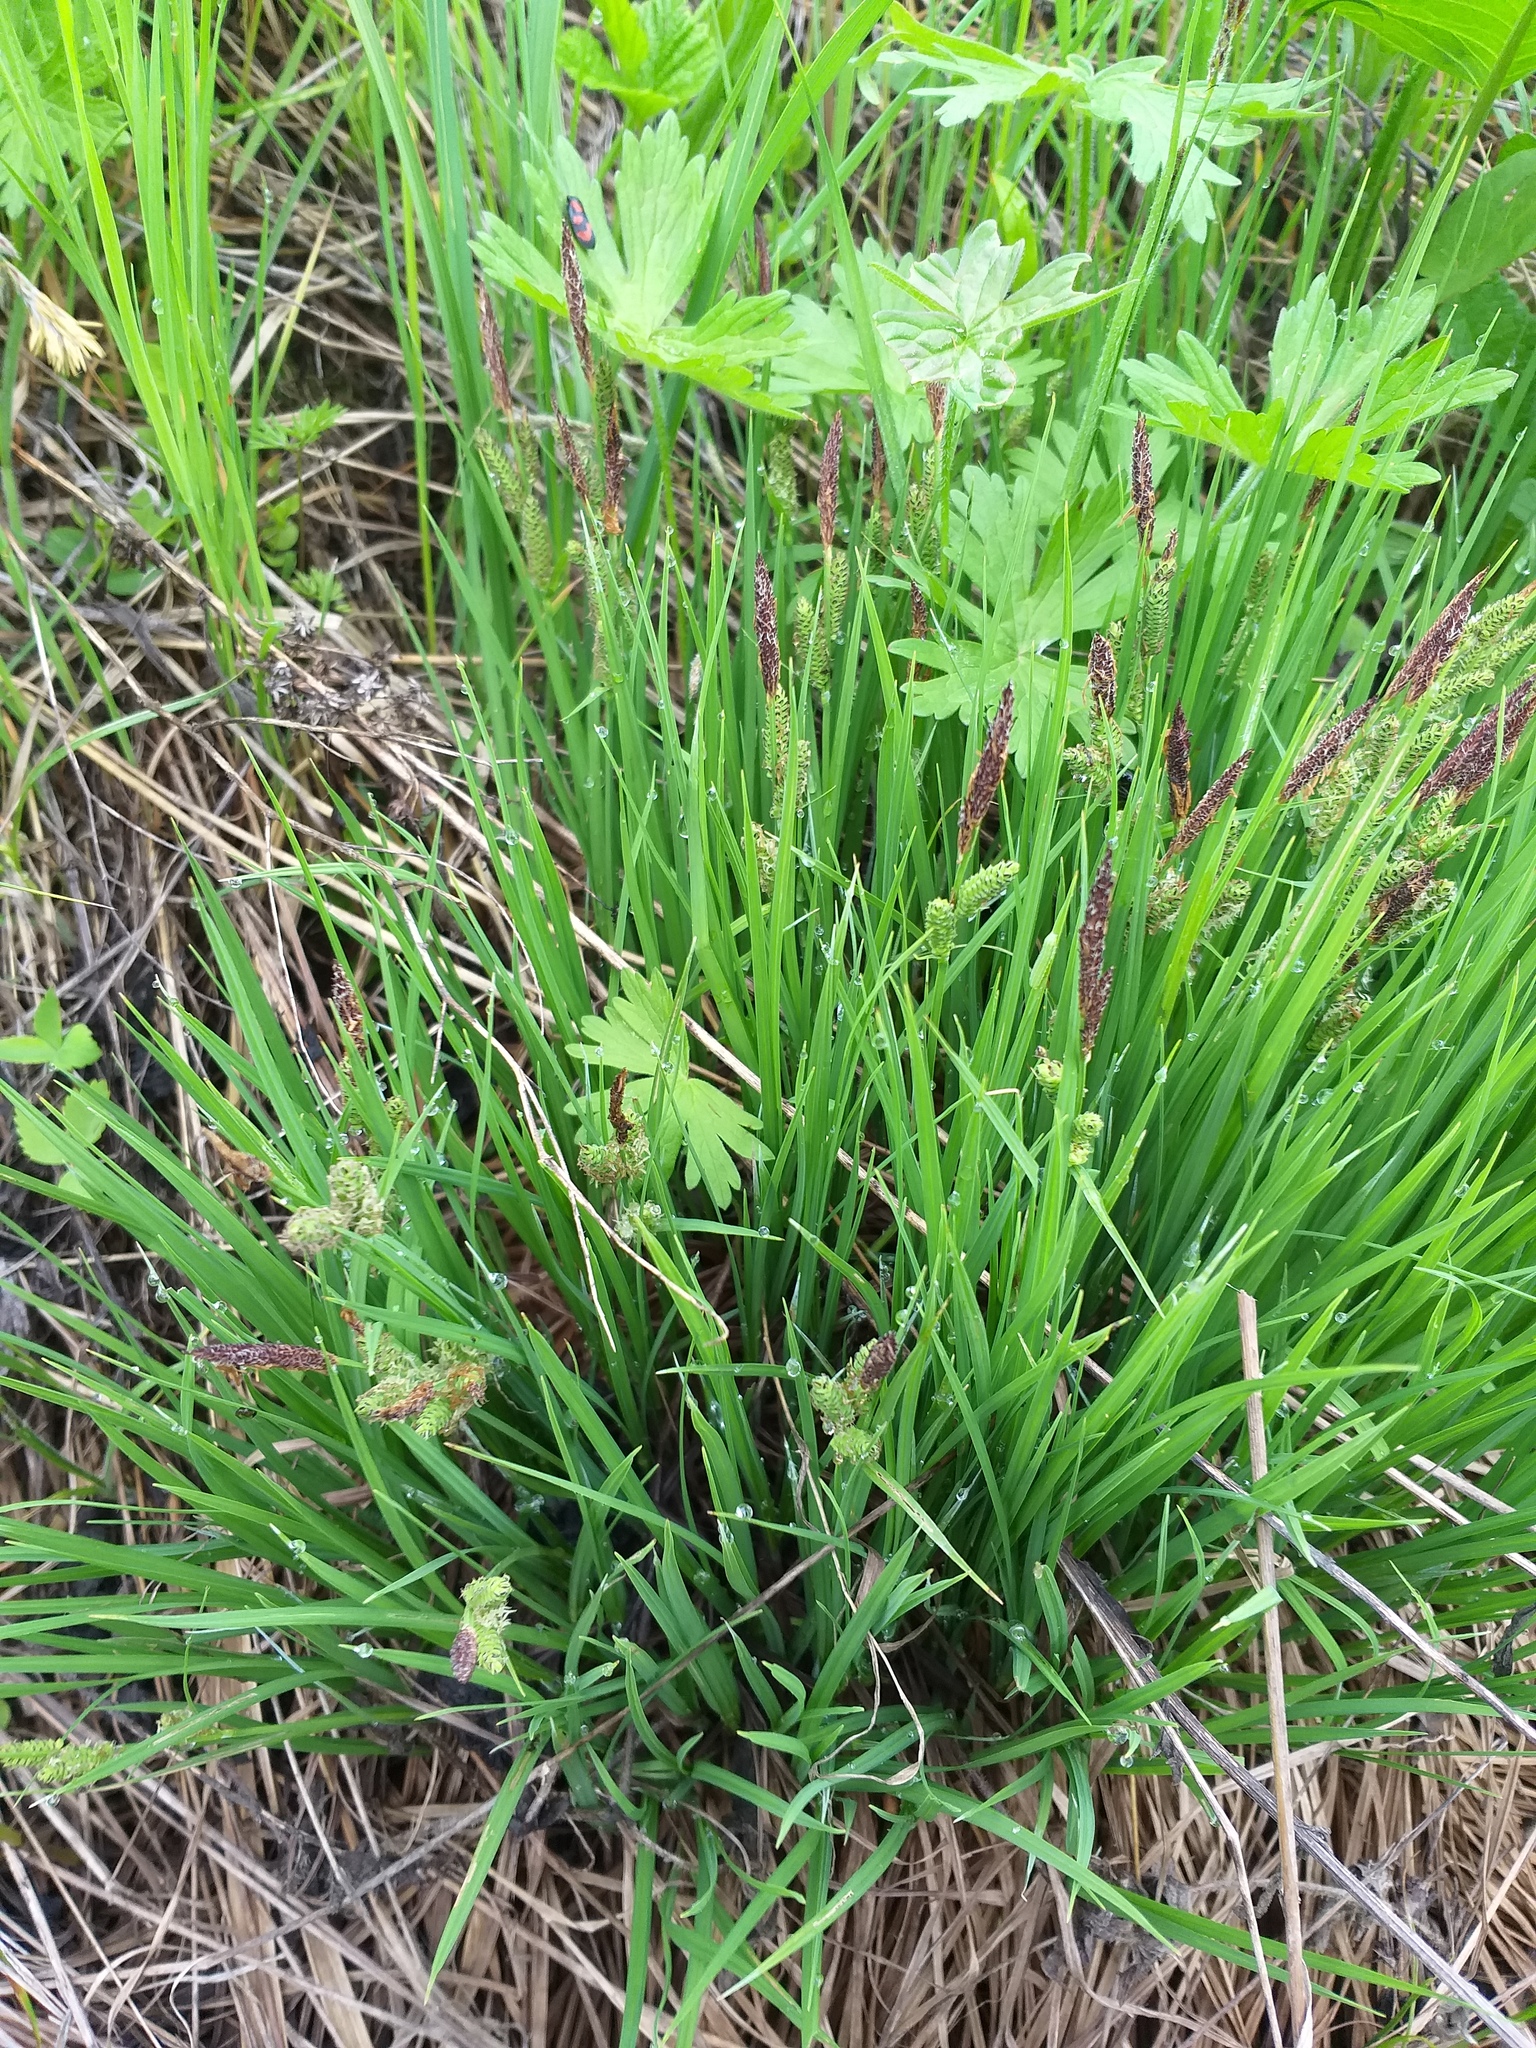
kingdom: Plantae
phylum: Tracheophyta
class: Liliopsida
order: Poales
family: Cyperaceae
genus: Carex
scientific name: Carex cespitosa
